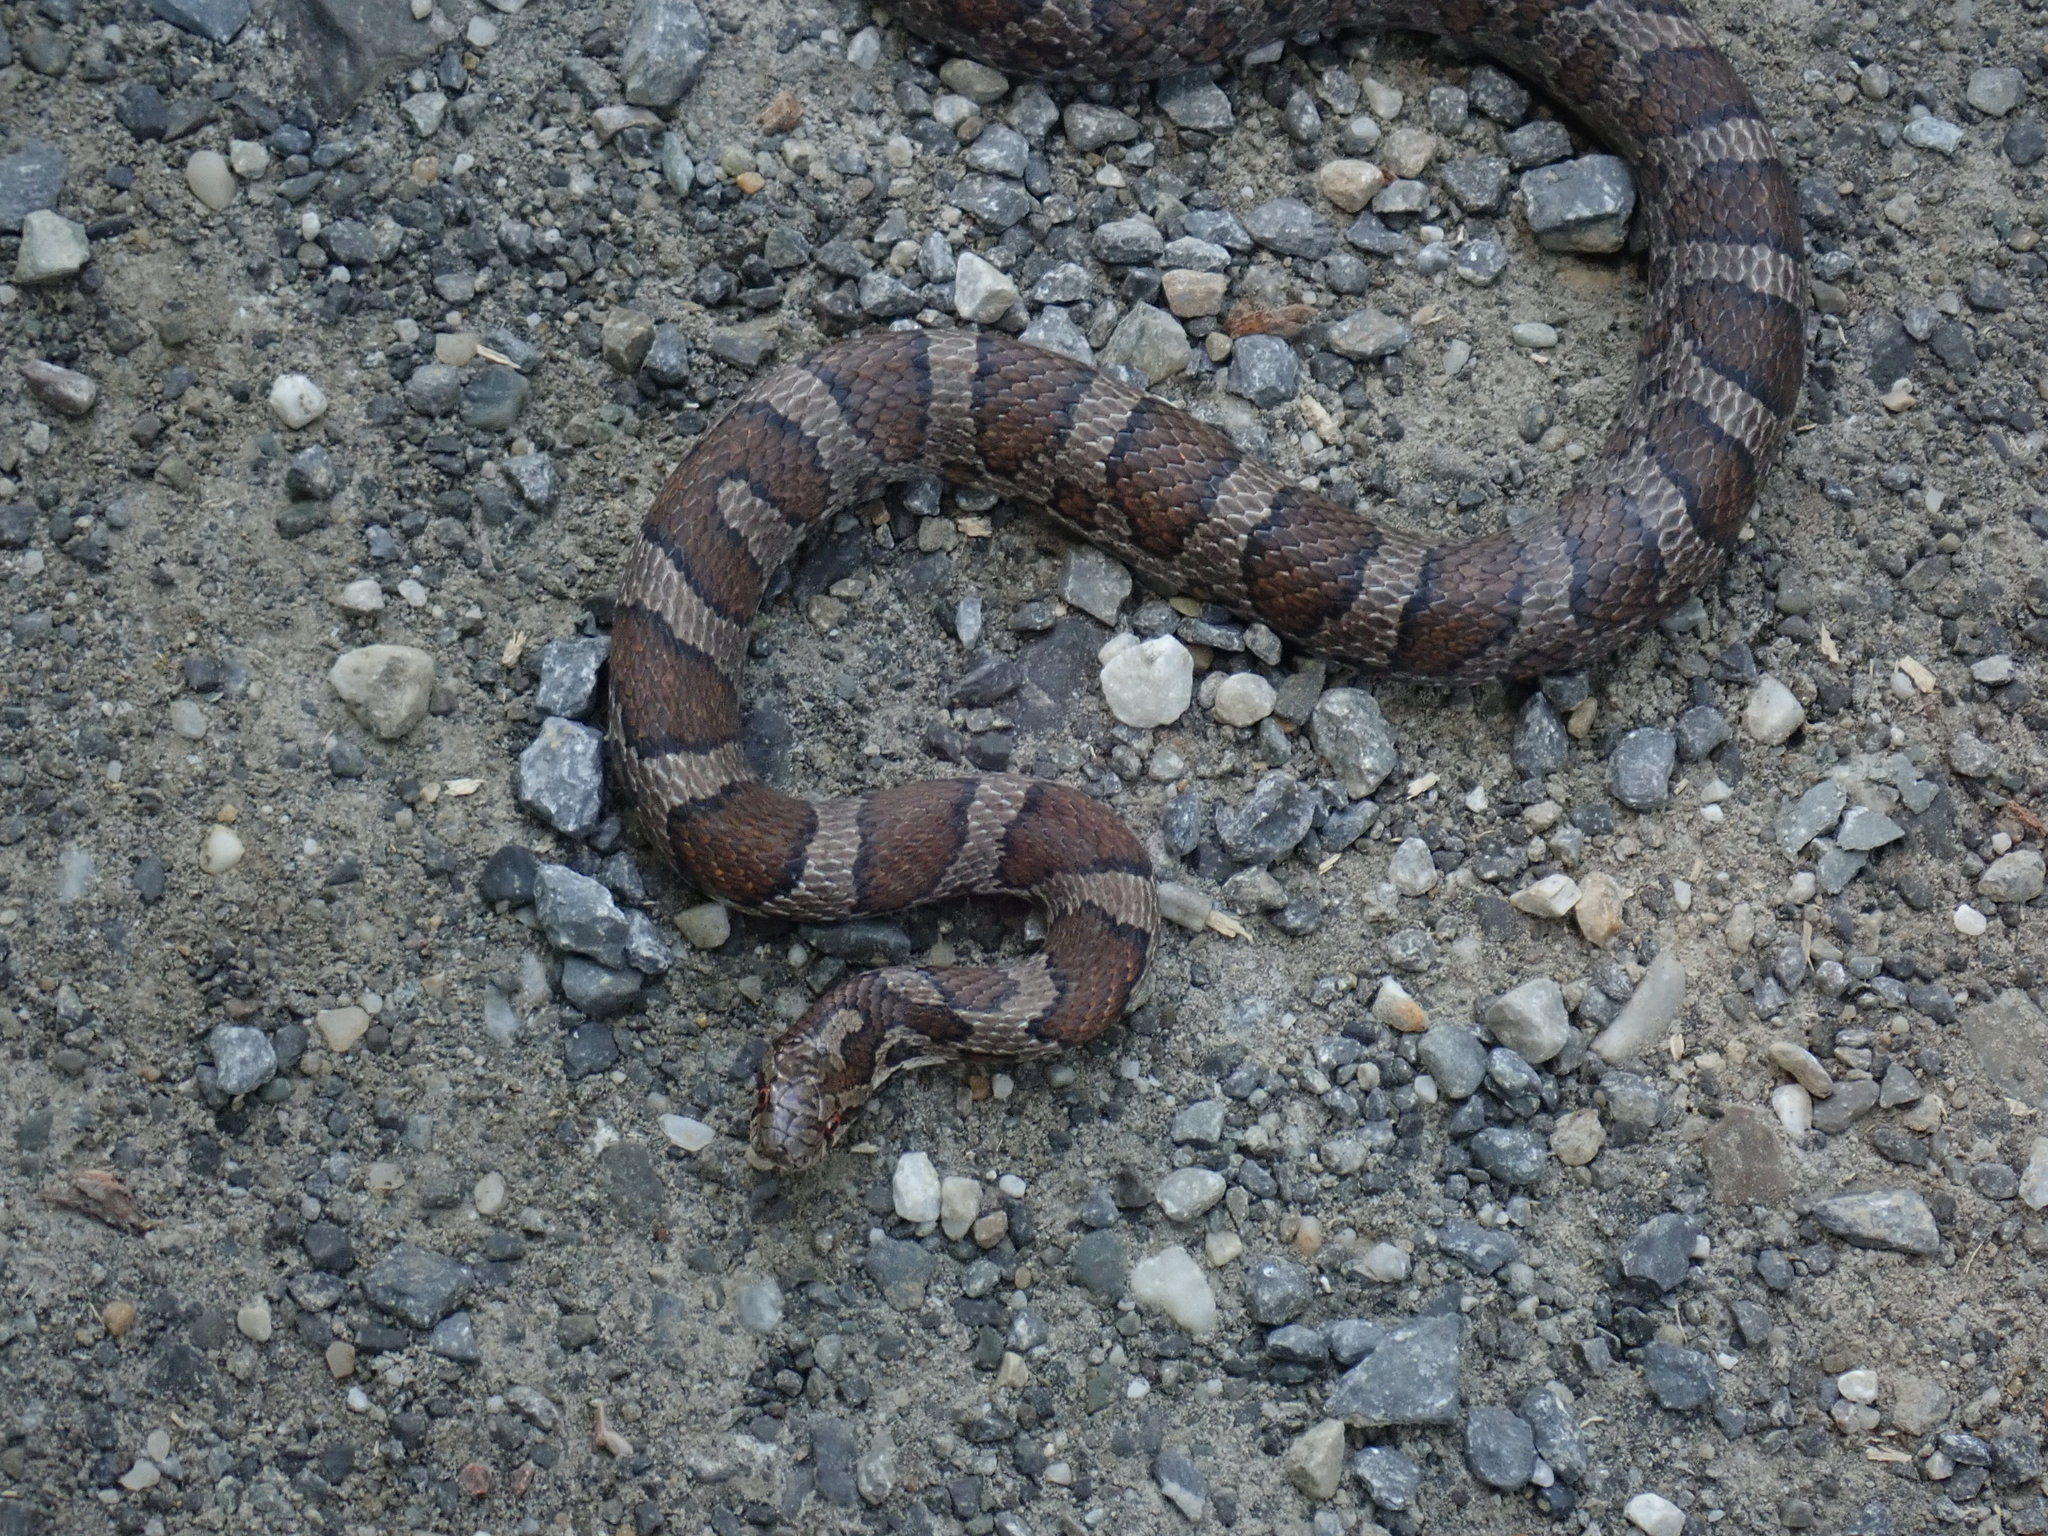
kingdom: Animalia
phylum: Chordata
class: Squamata
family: Colubridae
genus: Lampropeltis
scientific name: Lampropeltis triangulum
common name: Eastern milksnake
